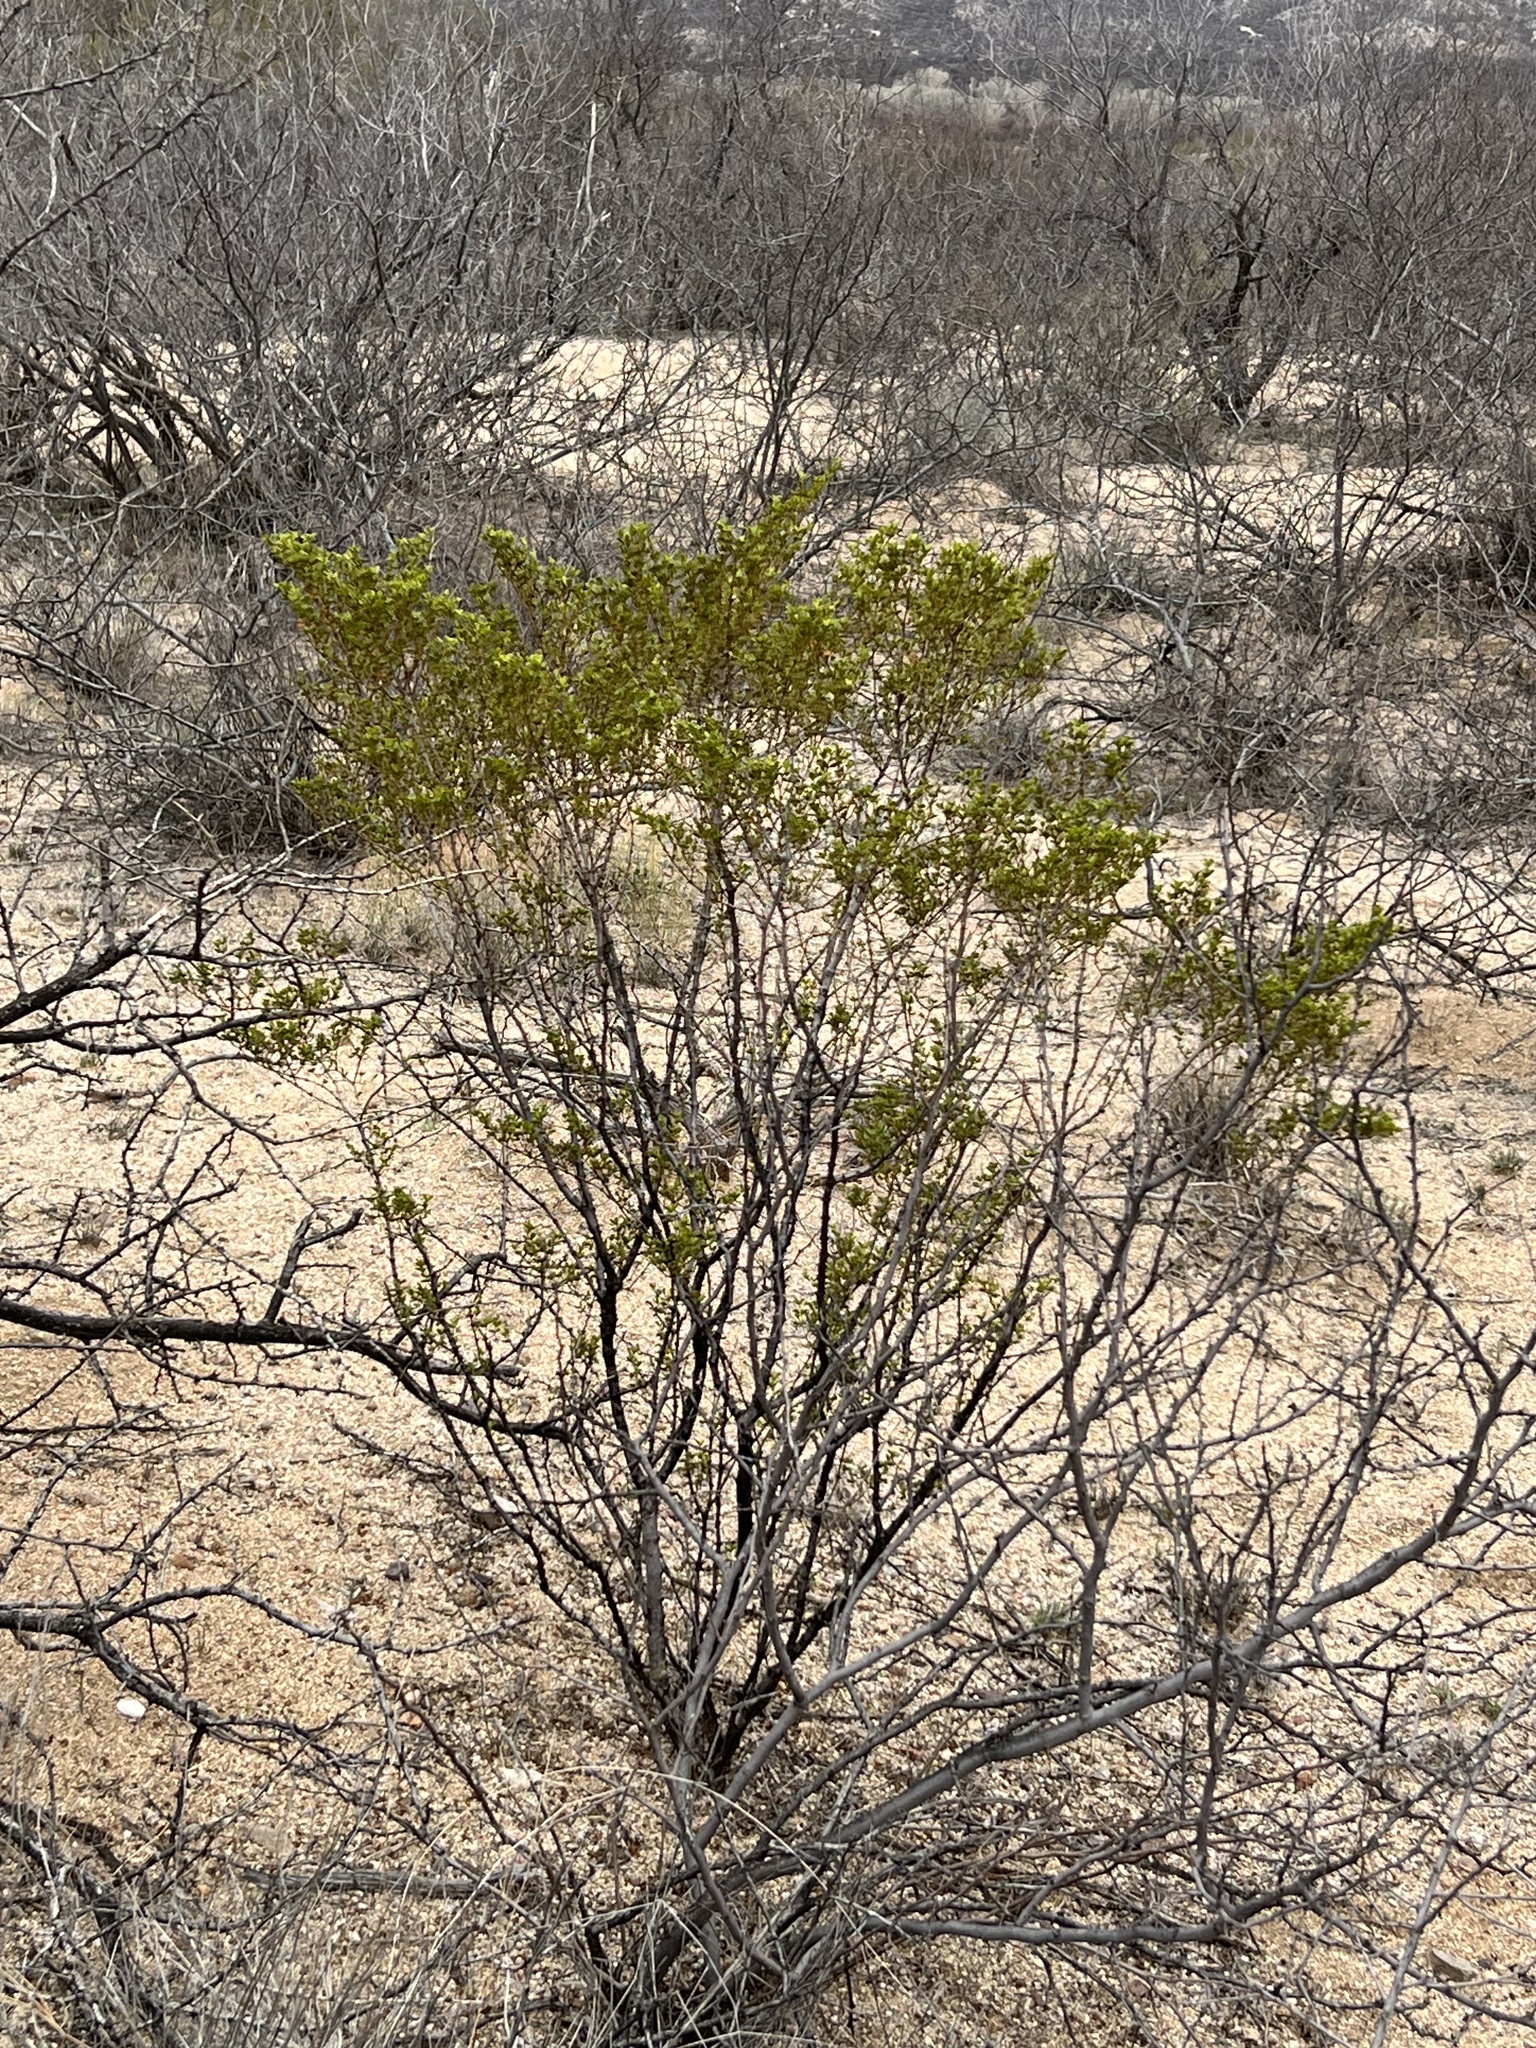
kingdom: Plantae
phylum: Tracheophyta
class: Magnoliopsida
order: Zygophyllales
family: Zygophyllaceae
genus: Larrea
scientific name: Larrea tridentata
